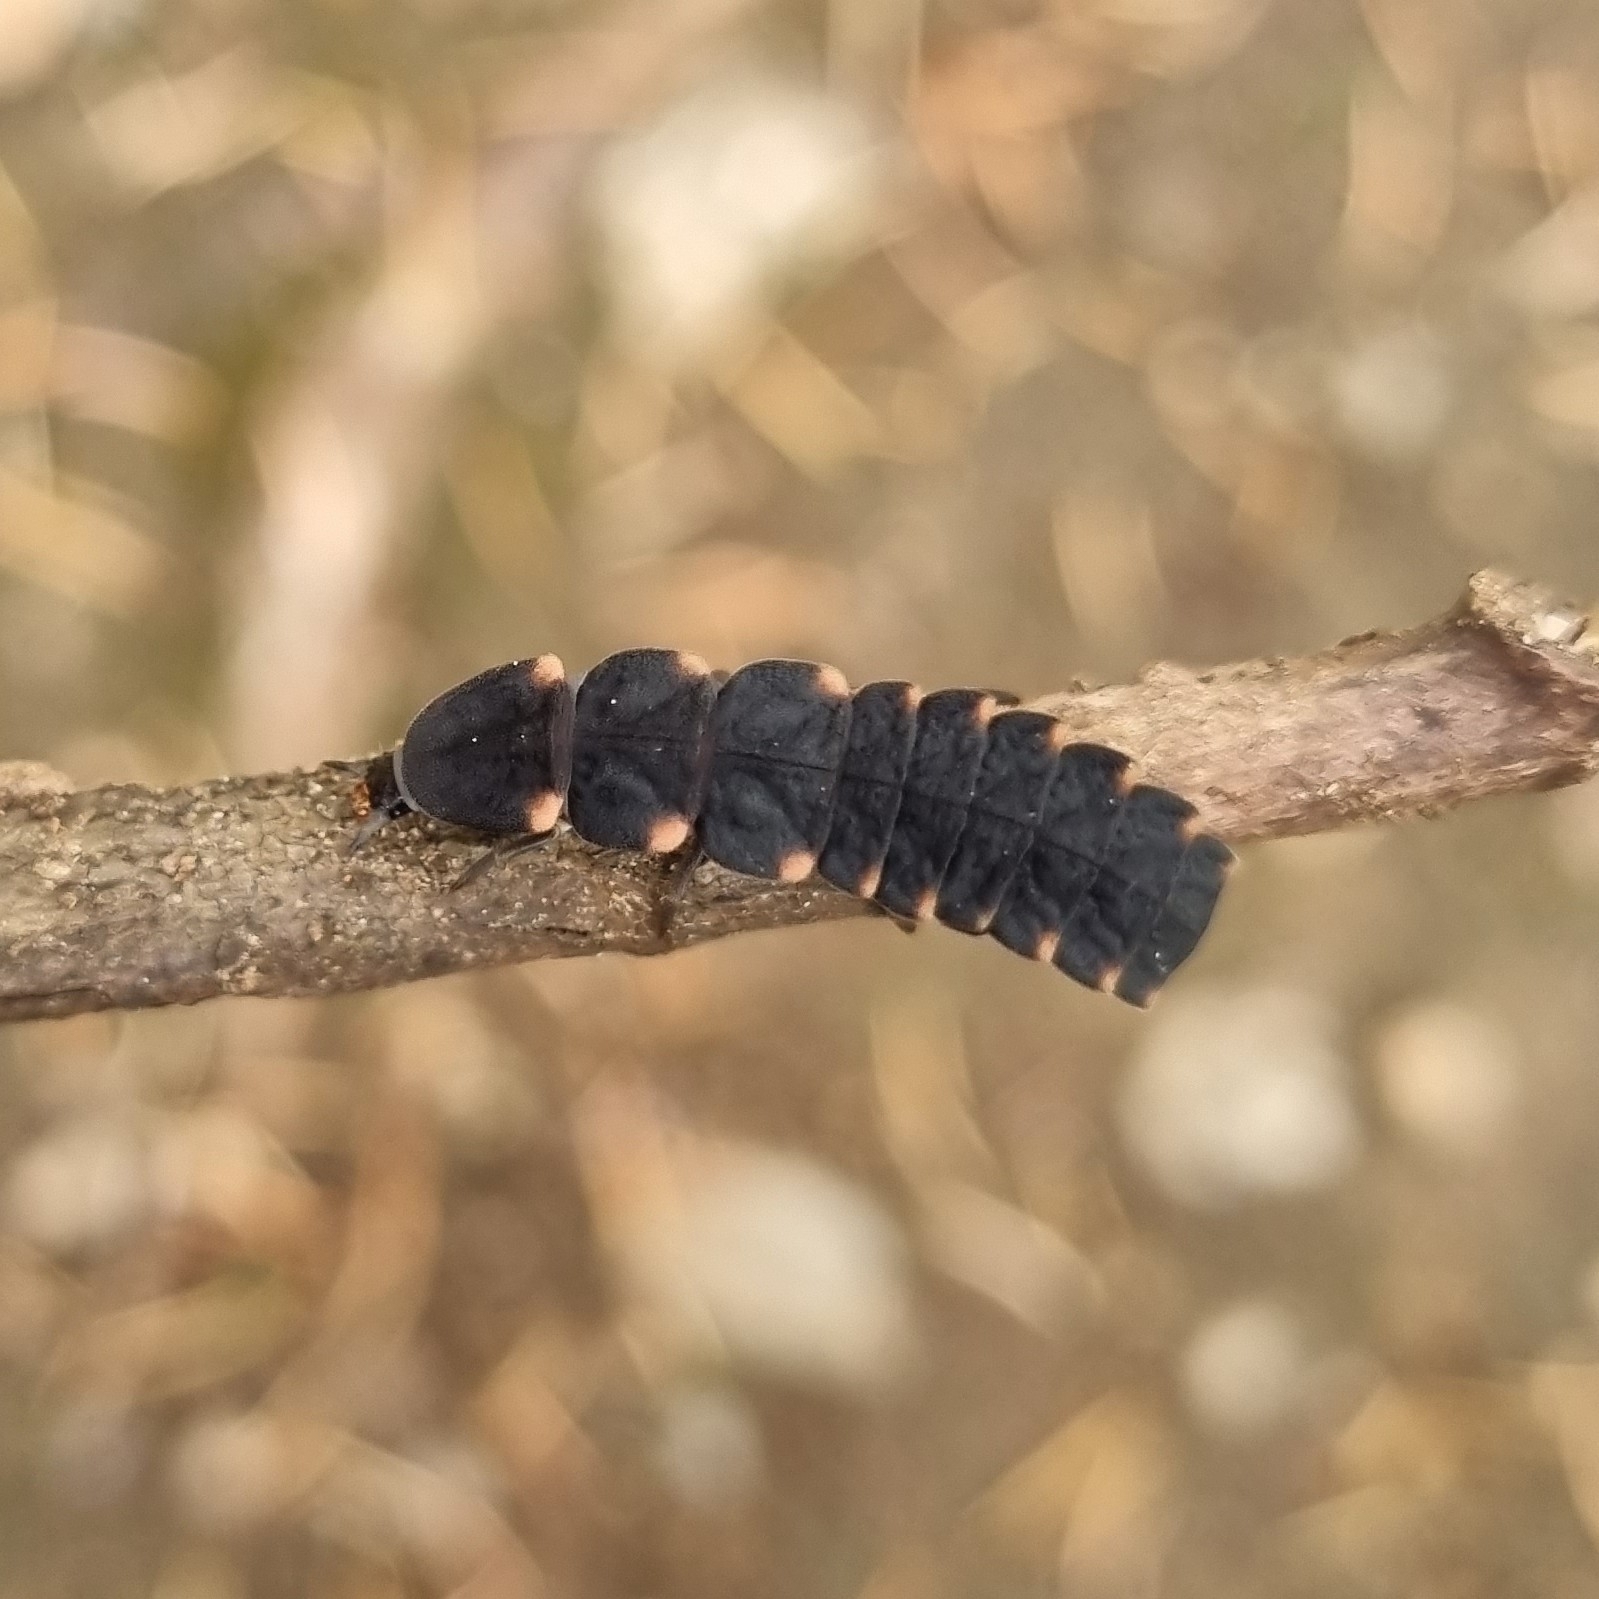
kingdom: Animalia
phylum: Arthropoda
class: Insecta
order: Coleoptera
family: Lampyridae
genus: Lampyris
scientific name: Lampyris noctiluca
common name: Glow-worm
